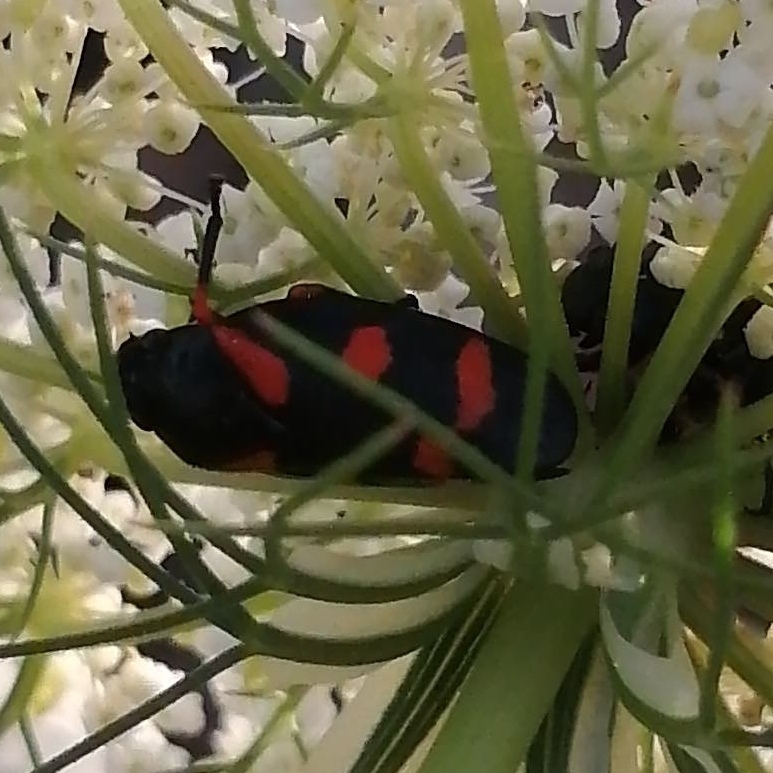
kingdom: Animalia
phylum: Arthropoda
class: Insecta
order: Hemiptera
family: Cercopidae
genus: Cercopis
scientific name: Cercopis intermedia
